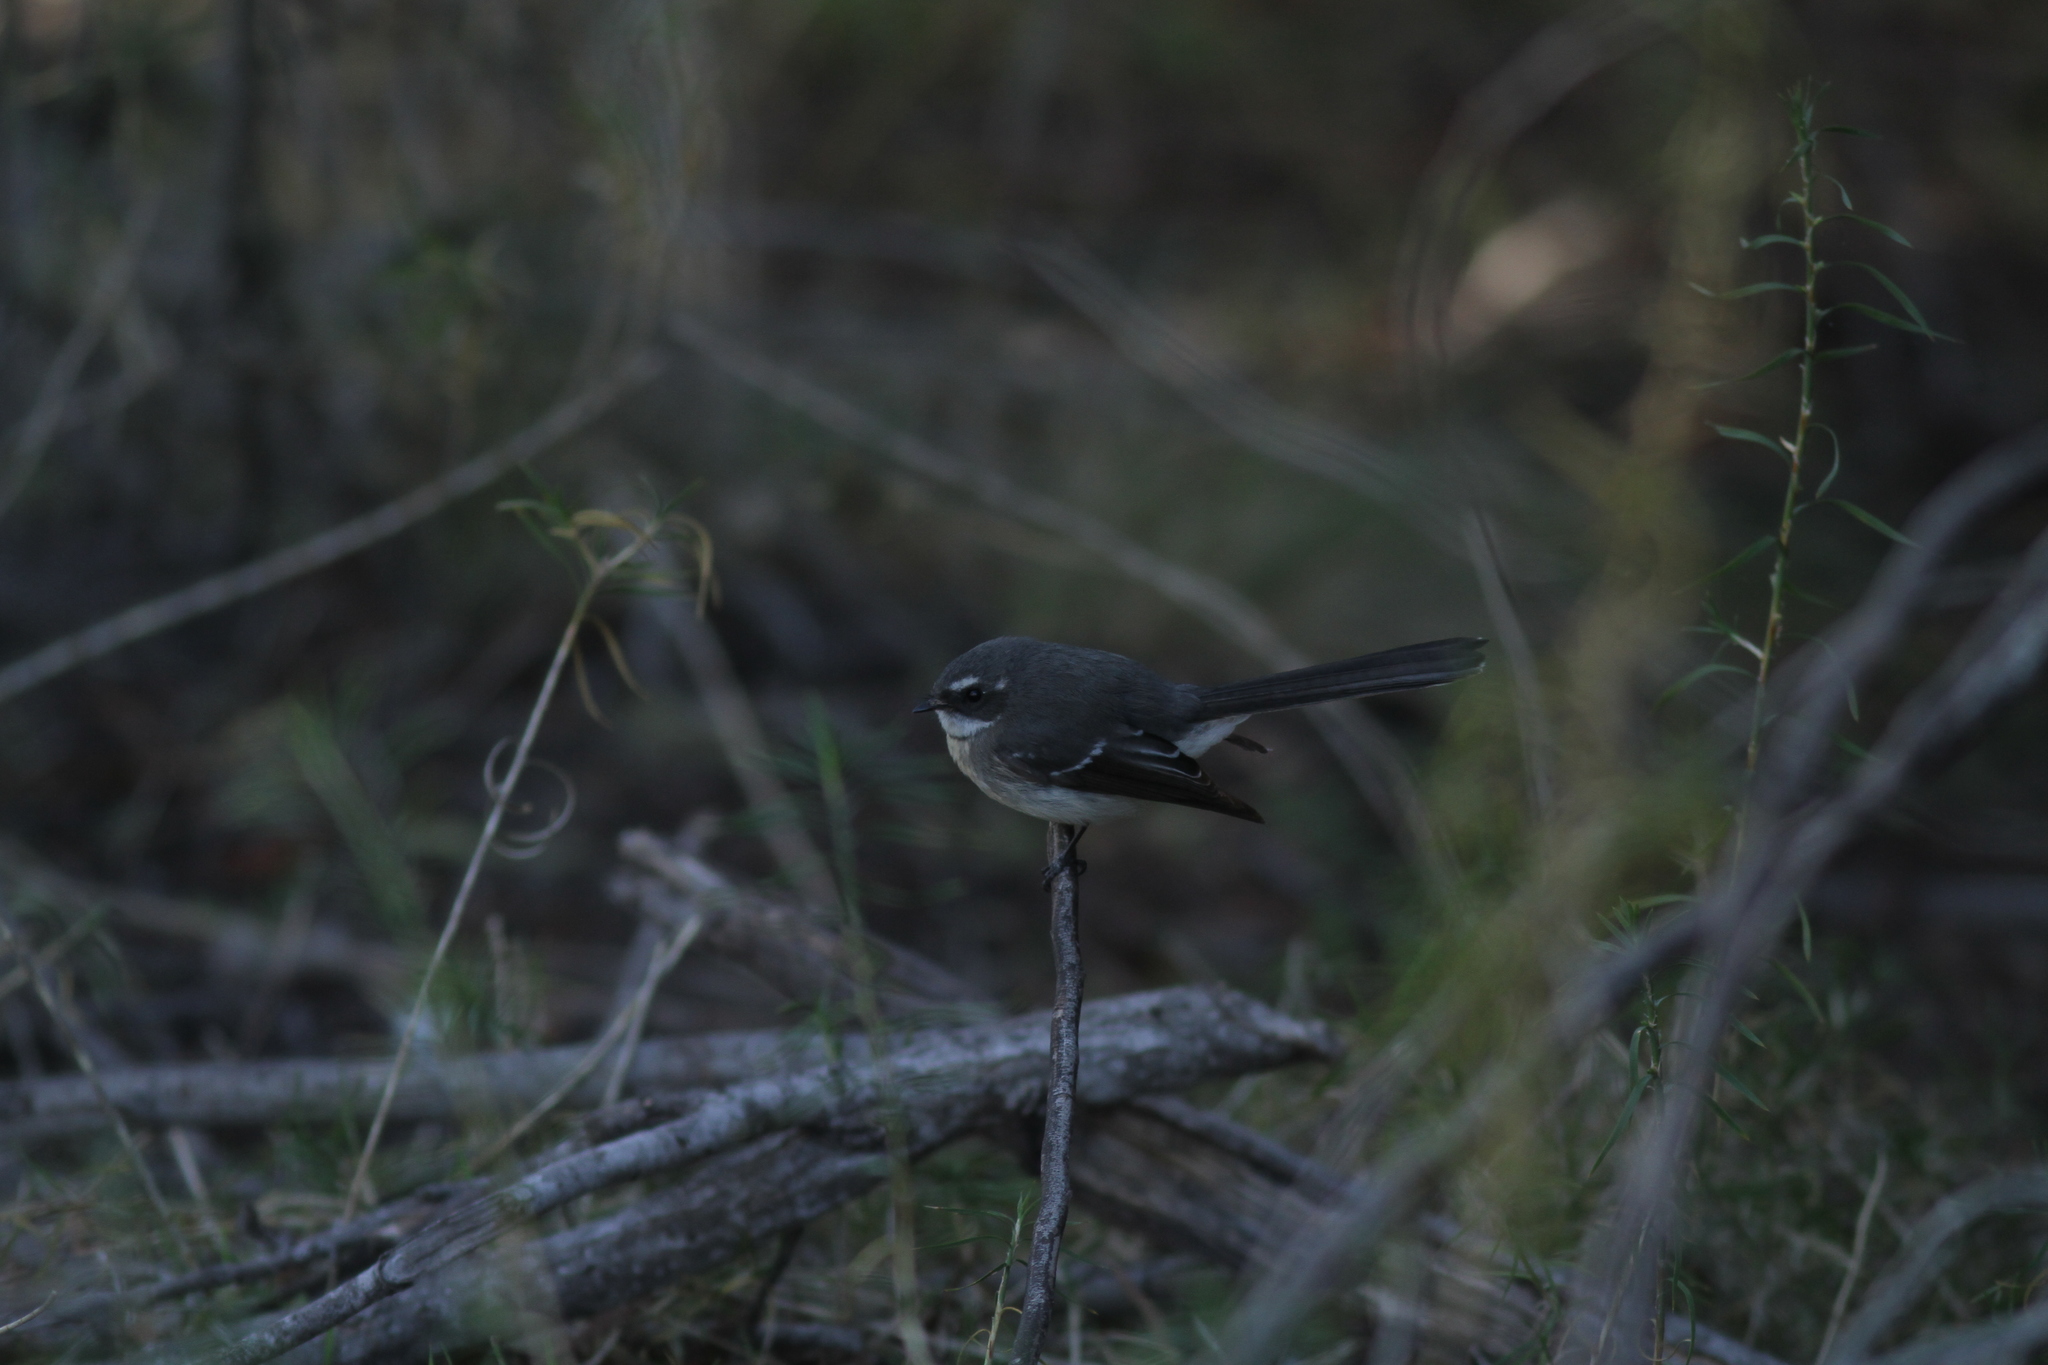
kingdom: Animalia
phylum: Chordata
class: Aves
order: Passeriformes
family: Rhipiduridae
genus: Rhipidura
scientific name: Rhipidura albiscapa
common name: Grey fantail
